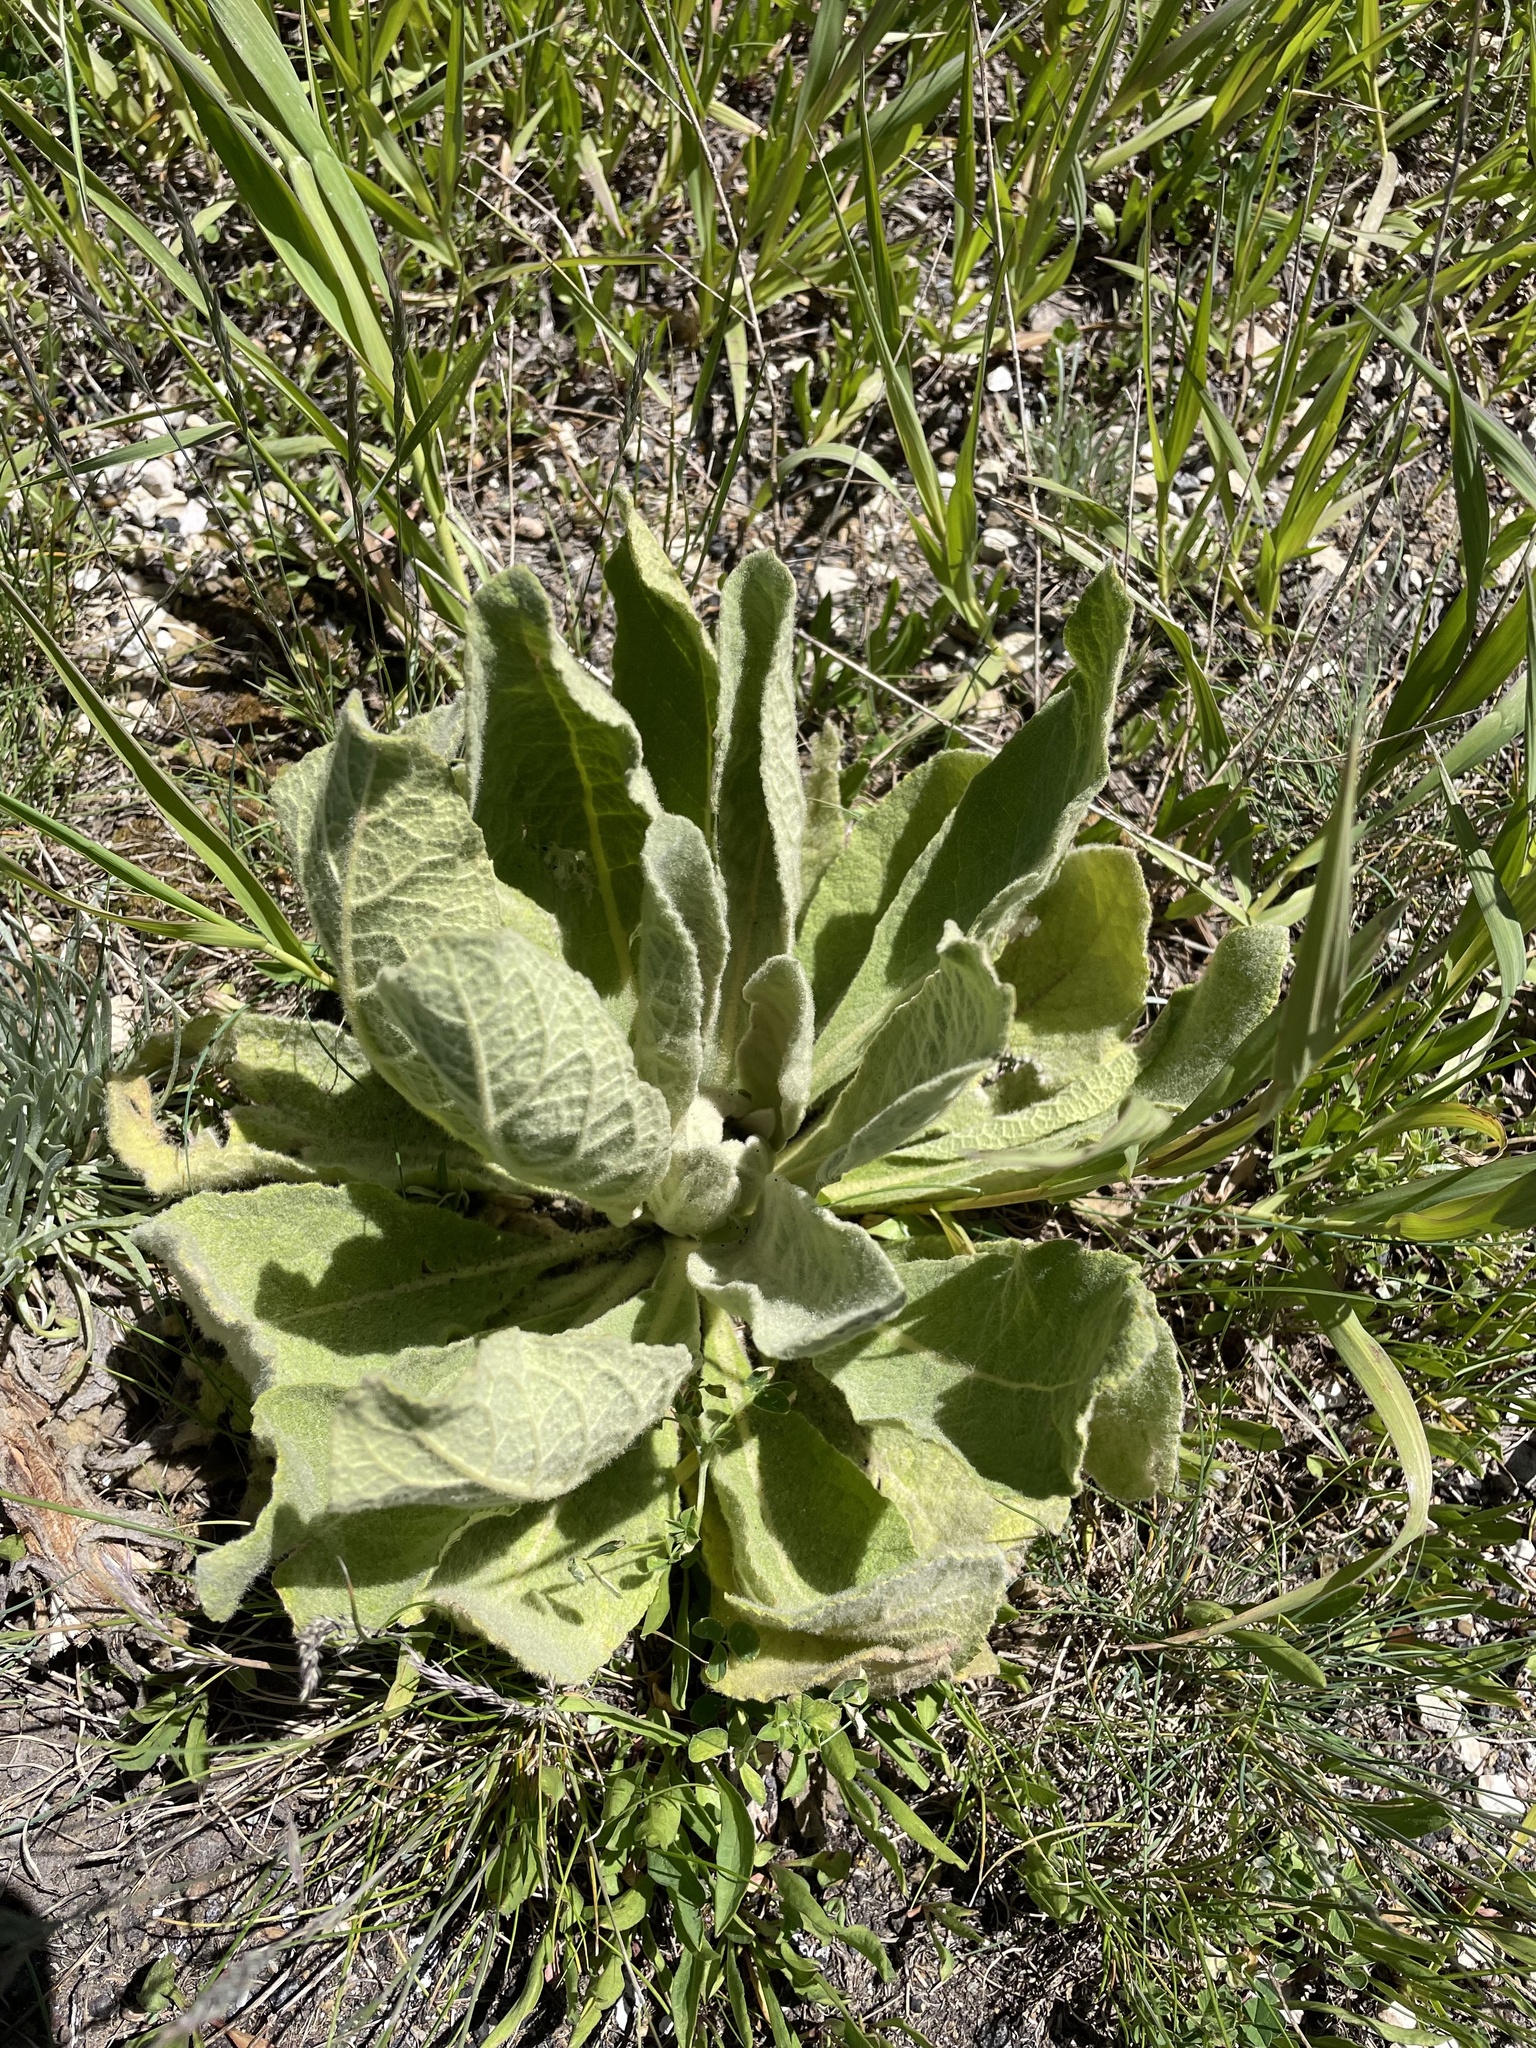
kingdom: Plantae
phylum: Tracheophyta
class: Magnoliopsida
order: Lamiales
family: Scrophulariaceae
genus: Verbascum
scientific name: Verbascum thapsus
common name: Common mullein
